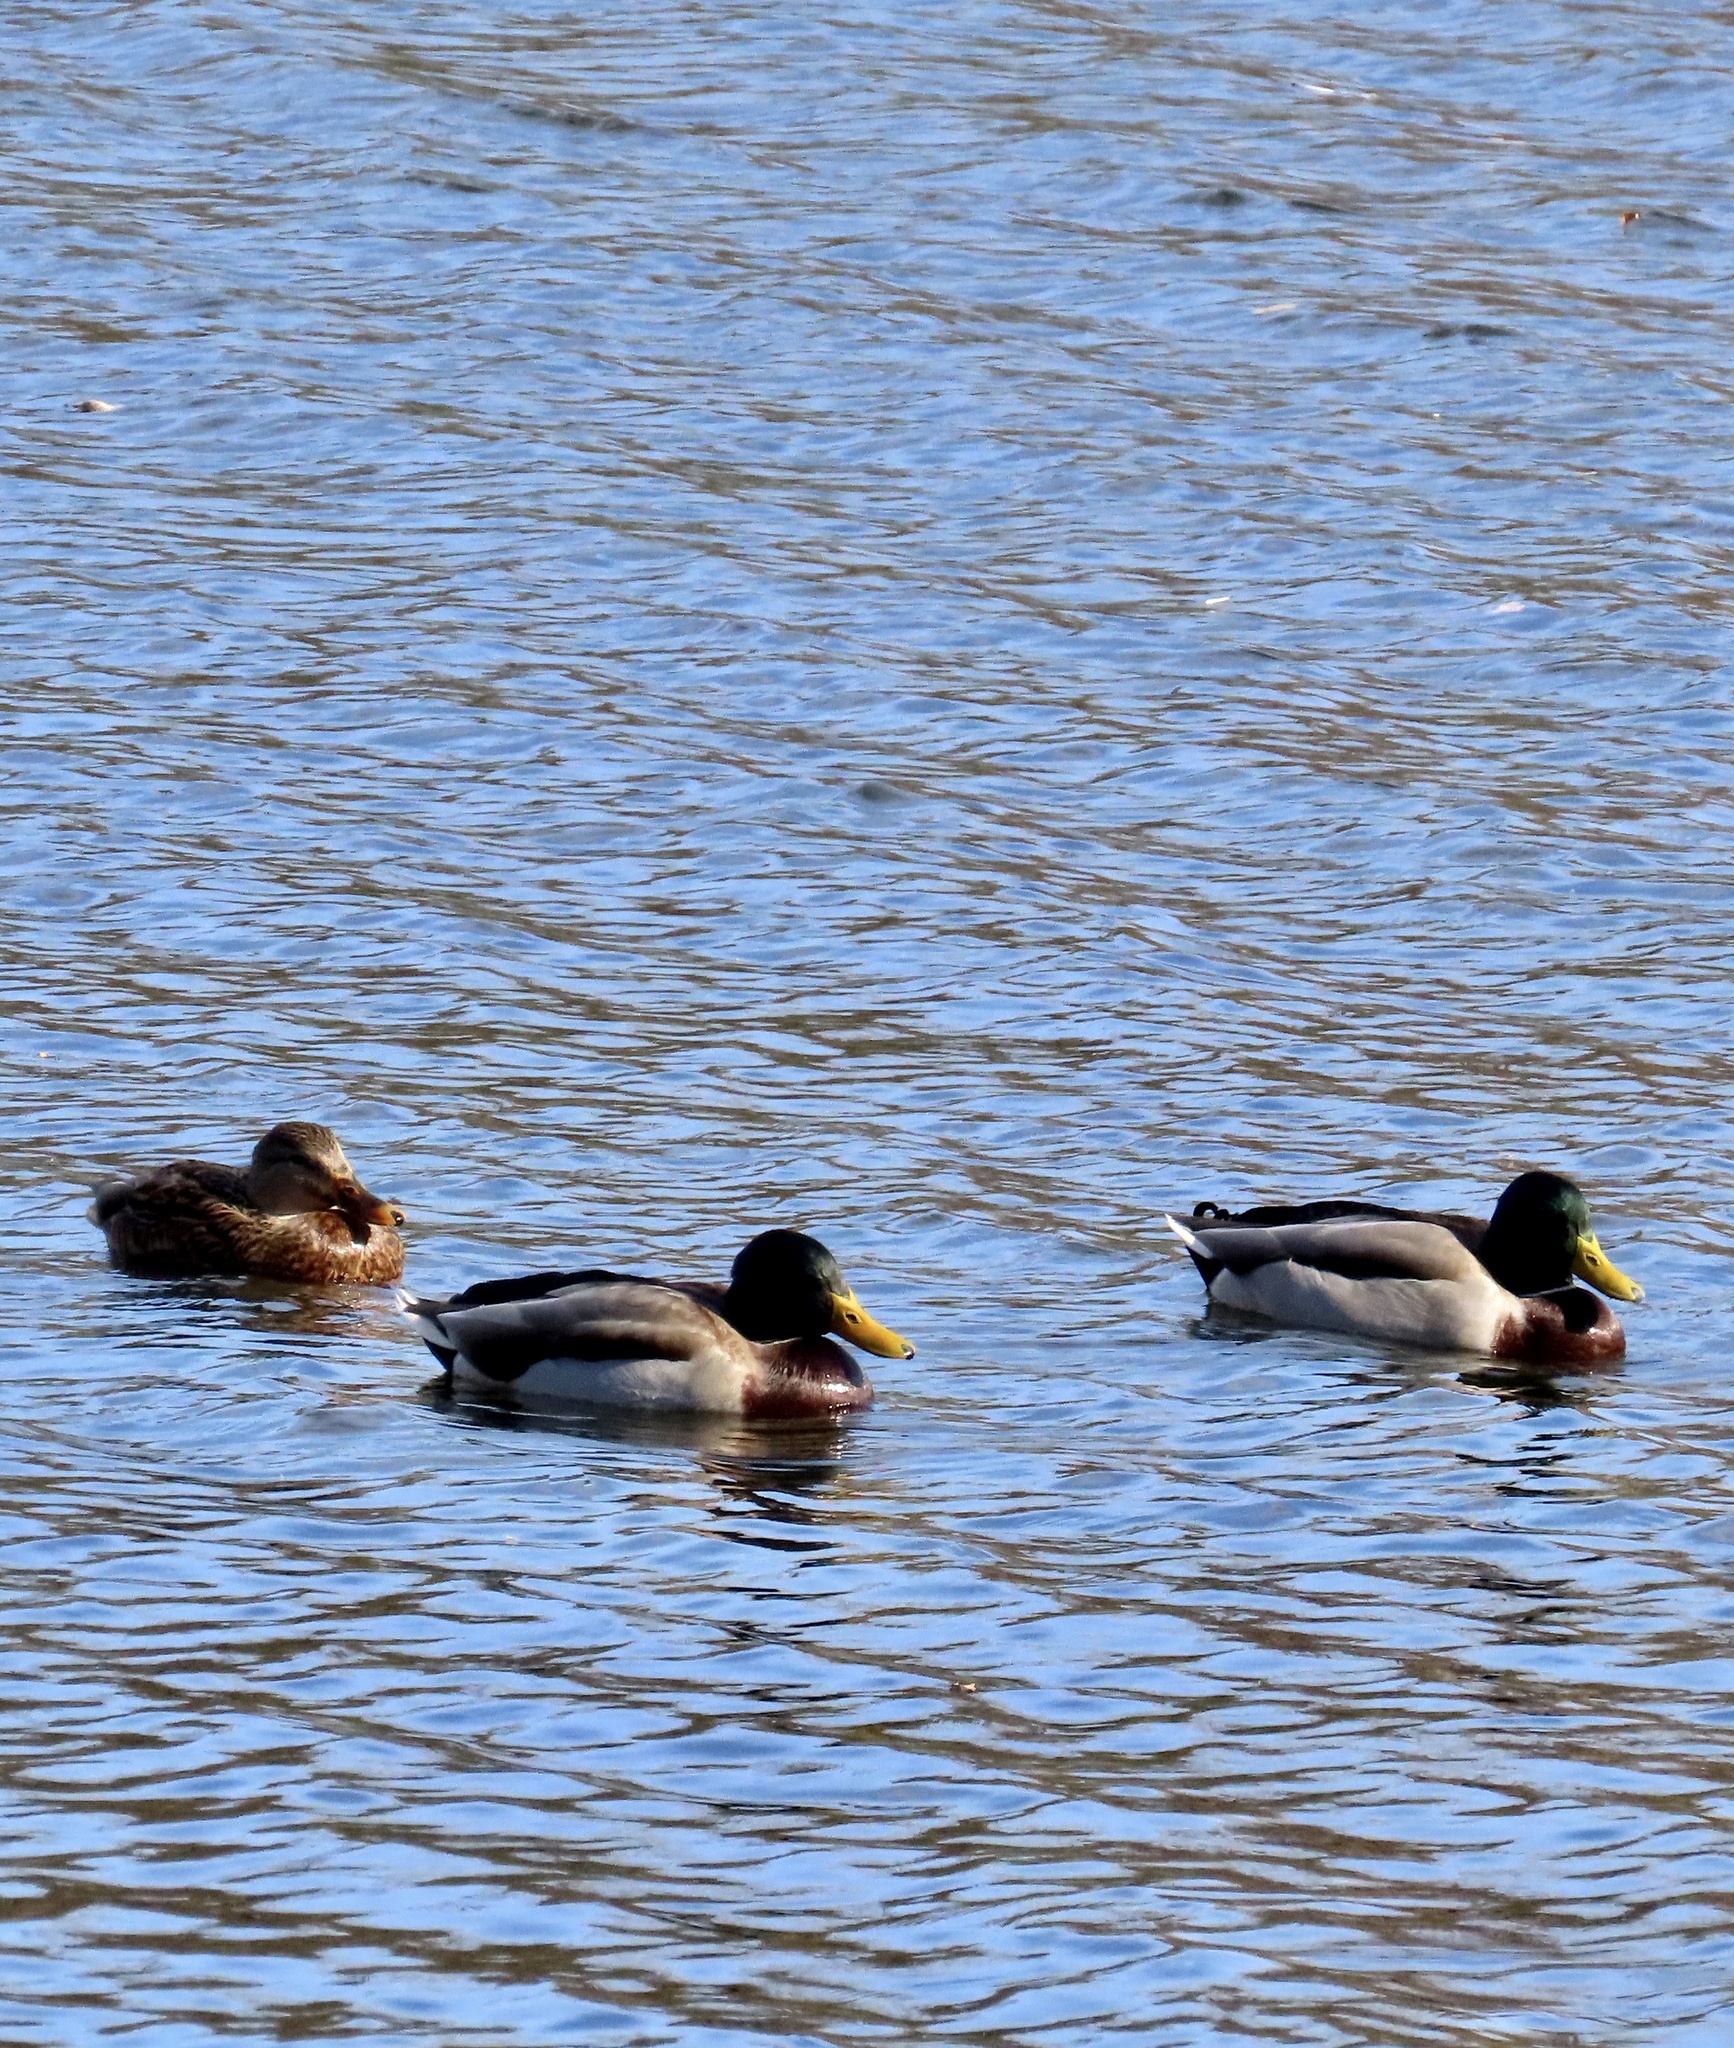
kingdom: Animalia
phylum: Chordata
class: Aves
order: Anseriformes
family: Anatidae
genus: Anas
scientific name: Anas platyrhynchos
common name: Mallard
